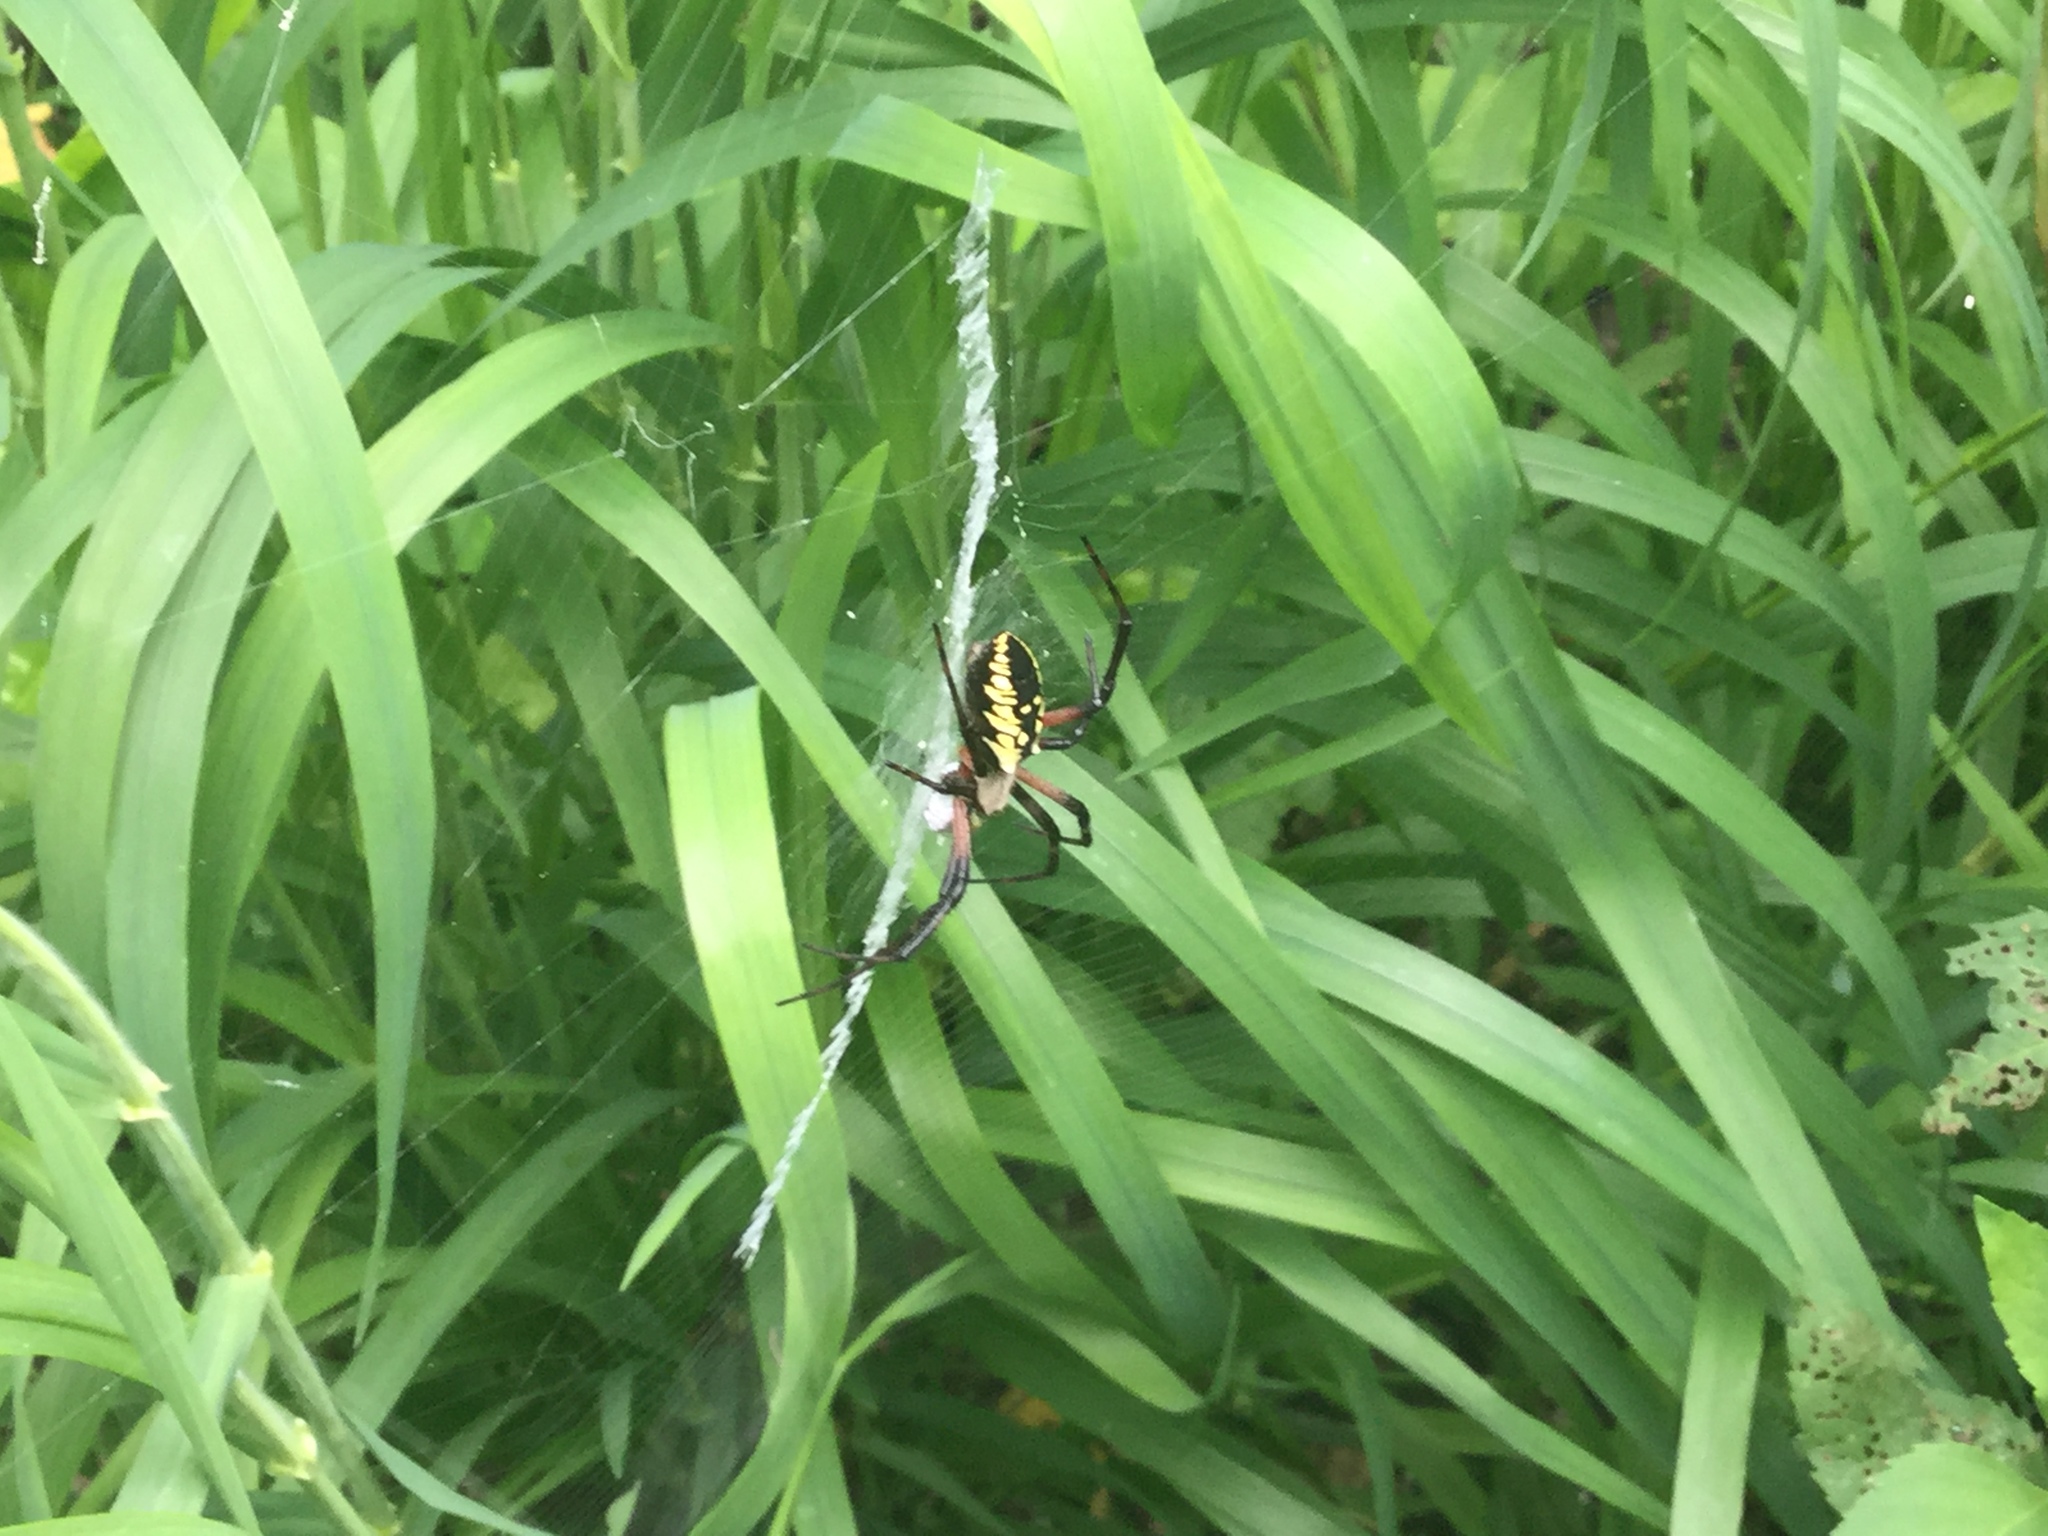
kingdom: Animalia
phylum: Arthropoda
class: Arachnida
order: Araneae
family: Araneidae
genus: Argiope
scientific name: Argiope aurantia
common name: Orb weavers
